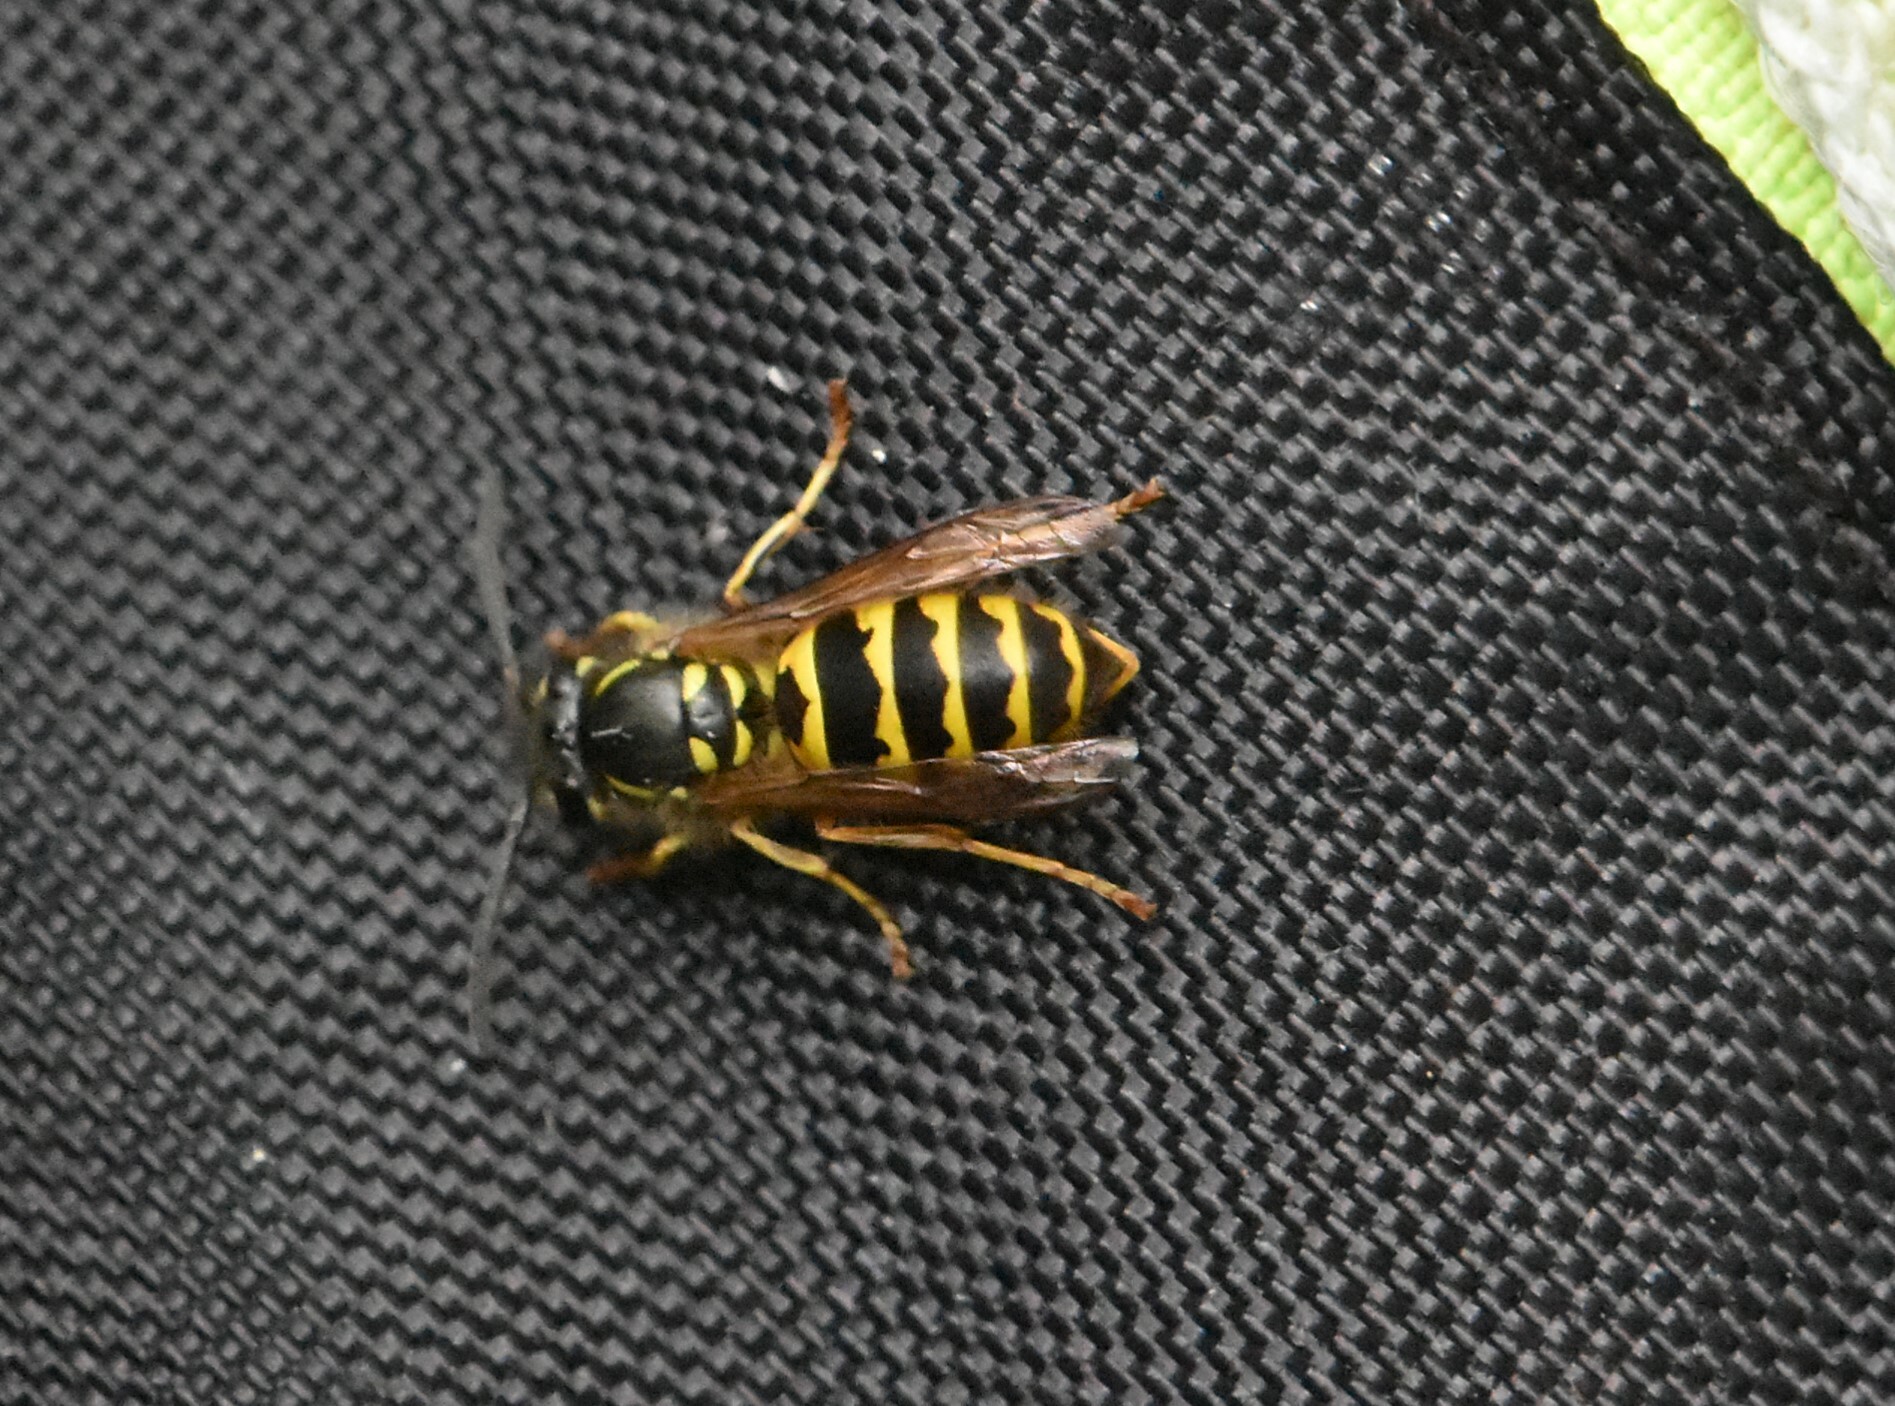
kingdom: Animalia
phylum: Arthropoda
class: Insecta
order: Hymenoptera
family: Vespidae
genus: Vespula
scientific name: Vespula vulgaris
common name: Common wasp
